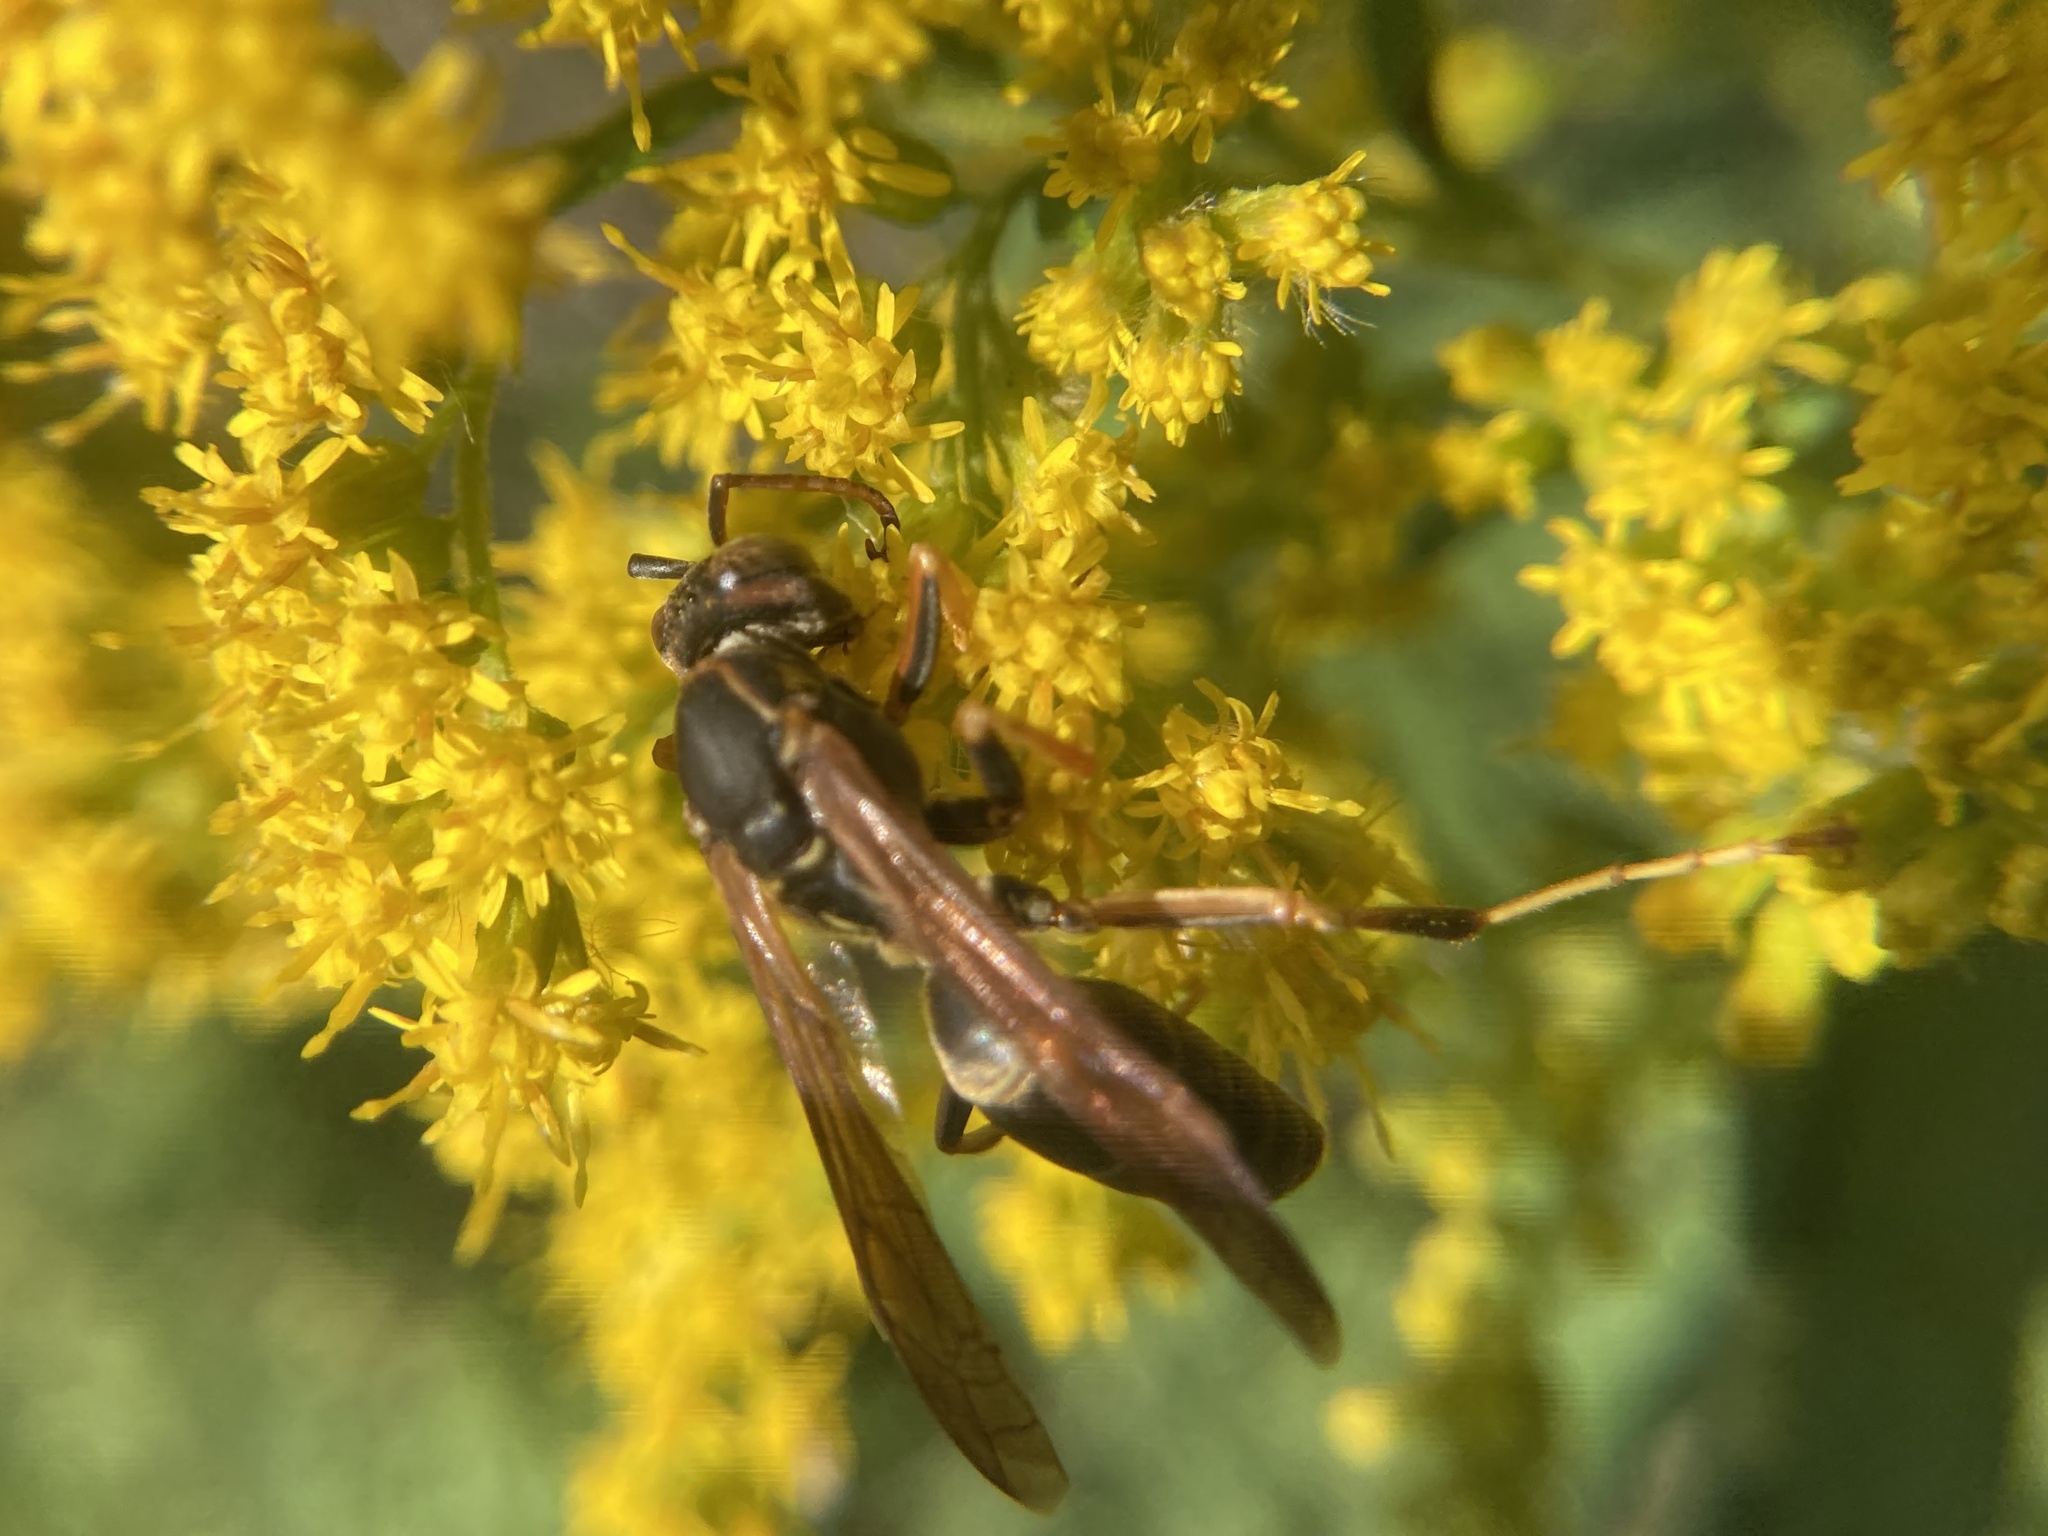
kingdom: Animalia
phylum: Arthropoda
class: Insecta
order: Hymenoptera
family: Eumenidae
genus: Polistes
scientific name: Polistes fuscatus
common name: Dark paper wasp
